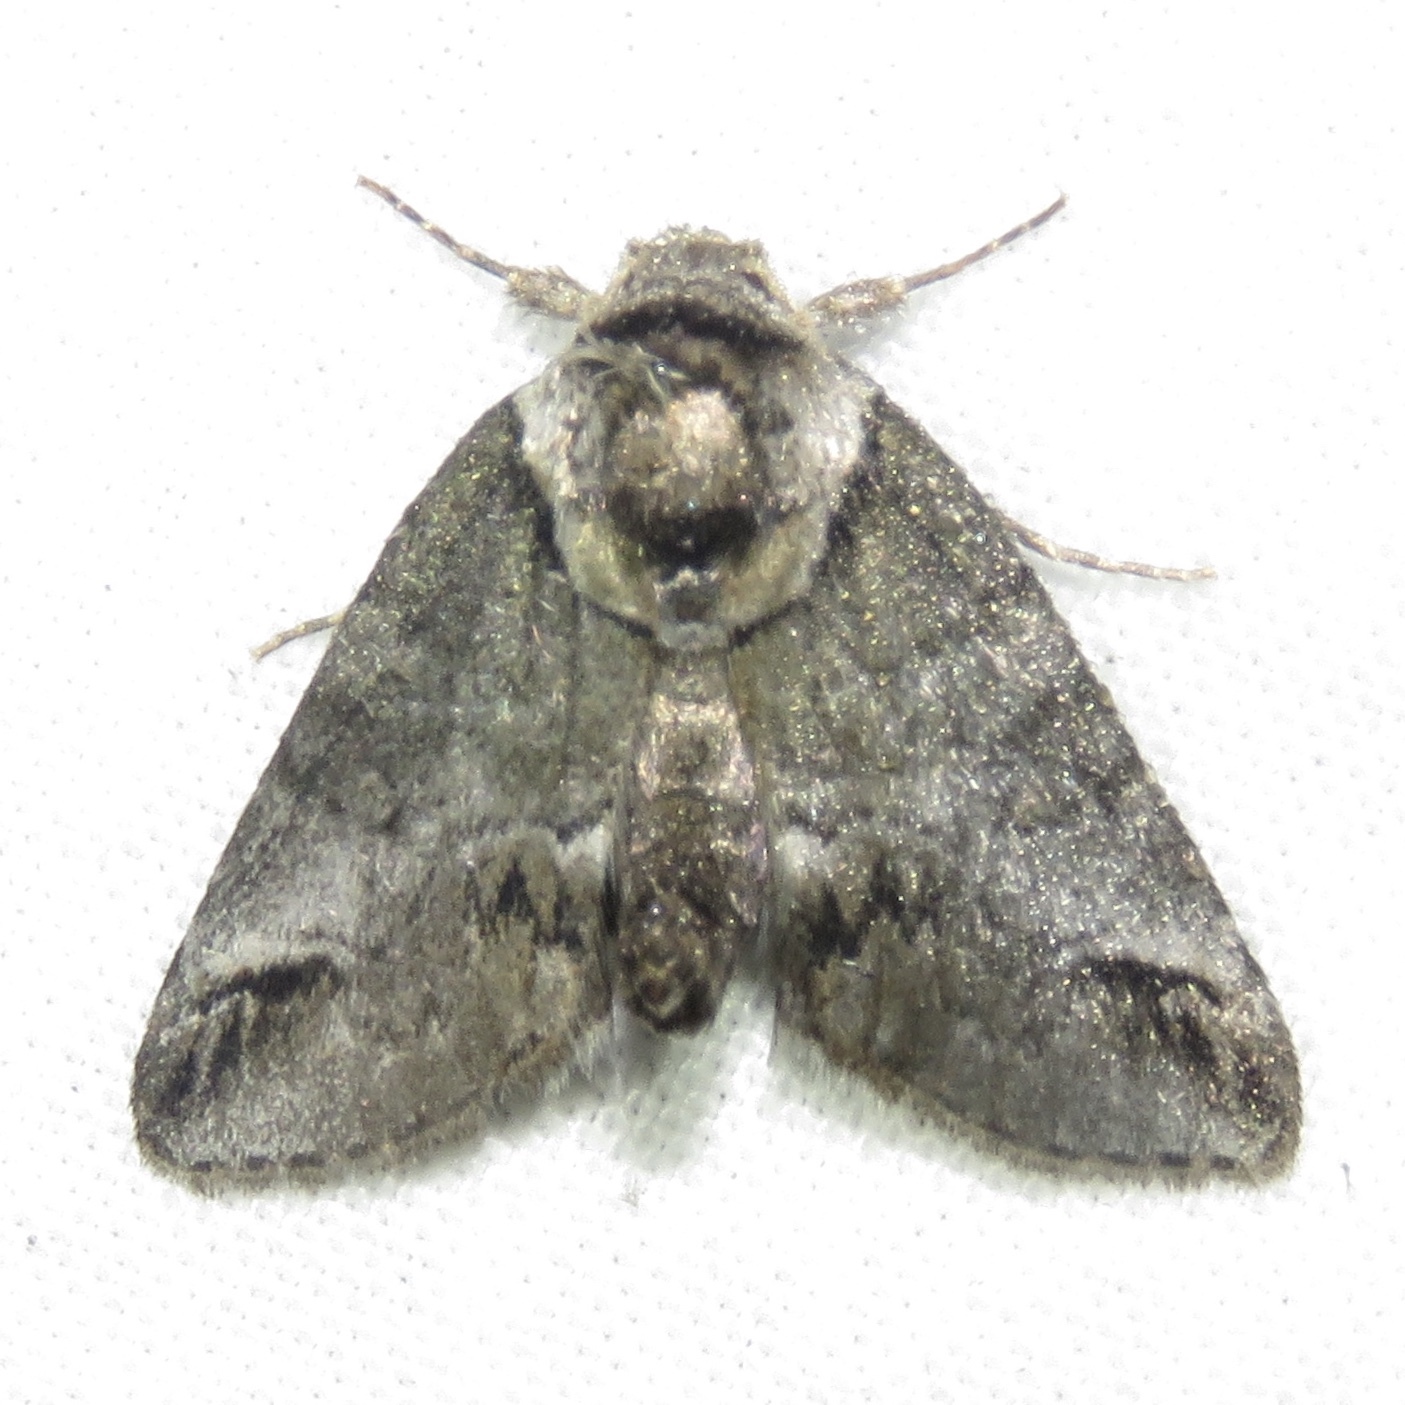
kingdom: Animalia
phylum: Arthropoda
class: Insecta
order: Lepidoptera
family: Nolidae
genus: Baileya
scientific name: Baileya australis
